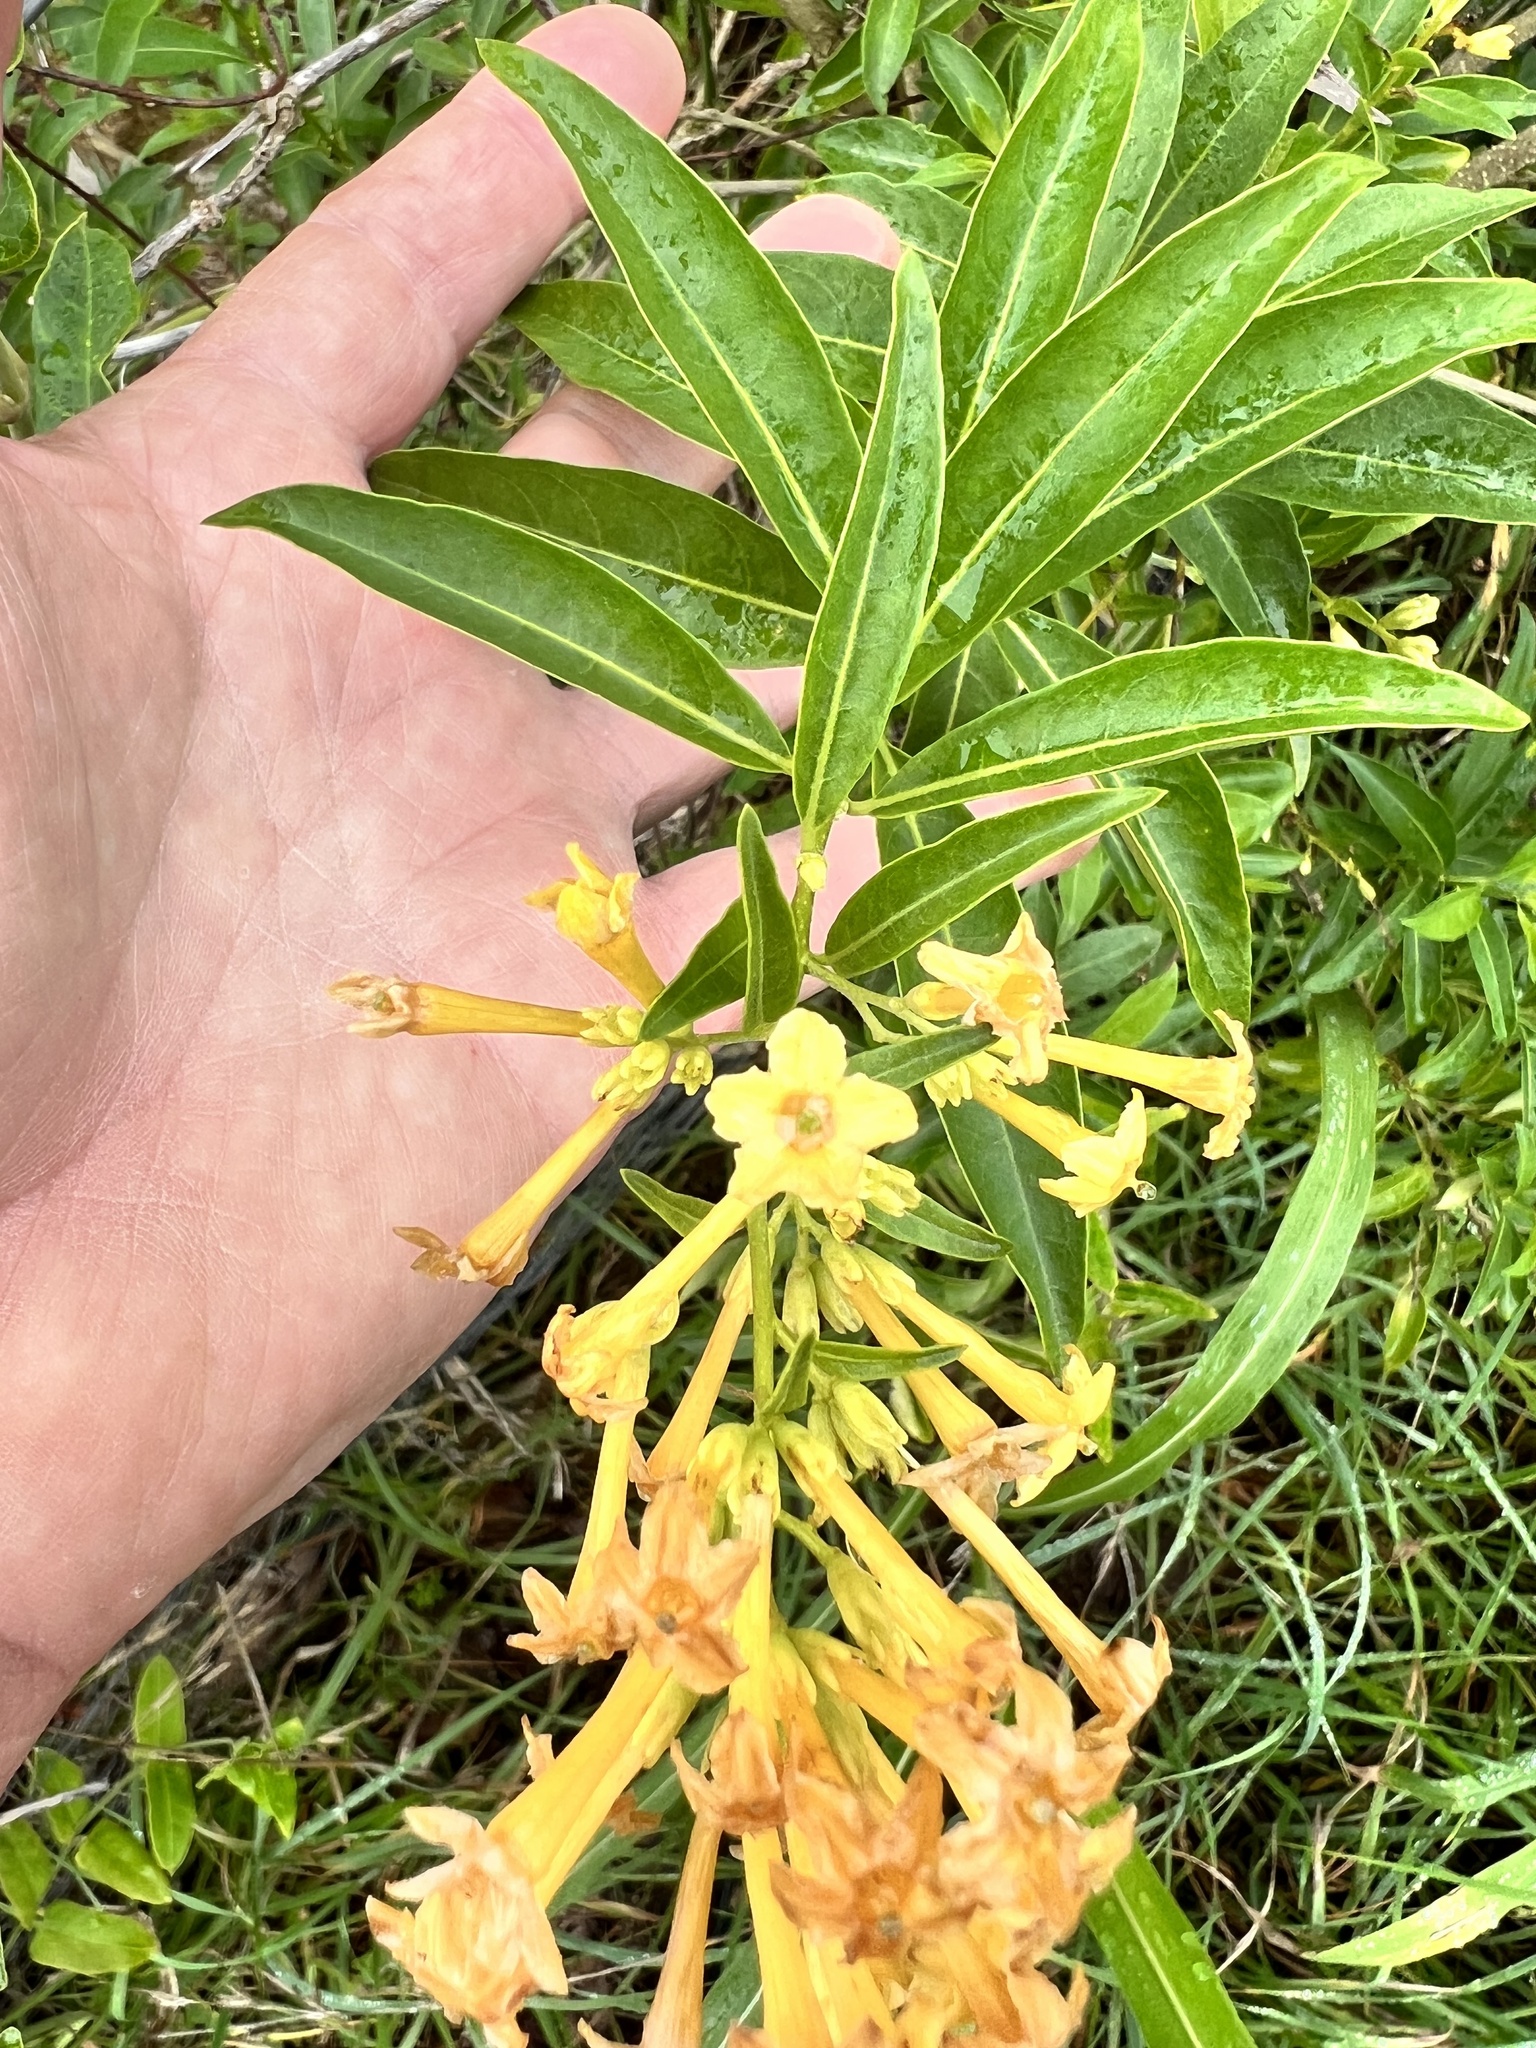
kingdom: Plantae
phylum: Tracheophyta
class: Magnoliopsida
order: Solanales
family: Solanaceae
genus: Cestrum
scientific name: Cestrum parqui
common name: Chilean cestrum
